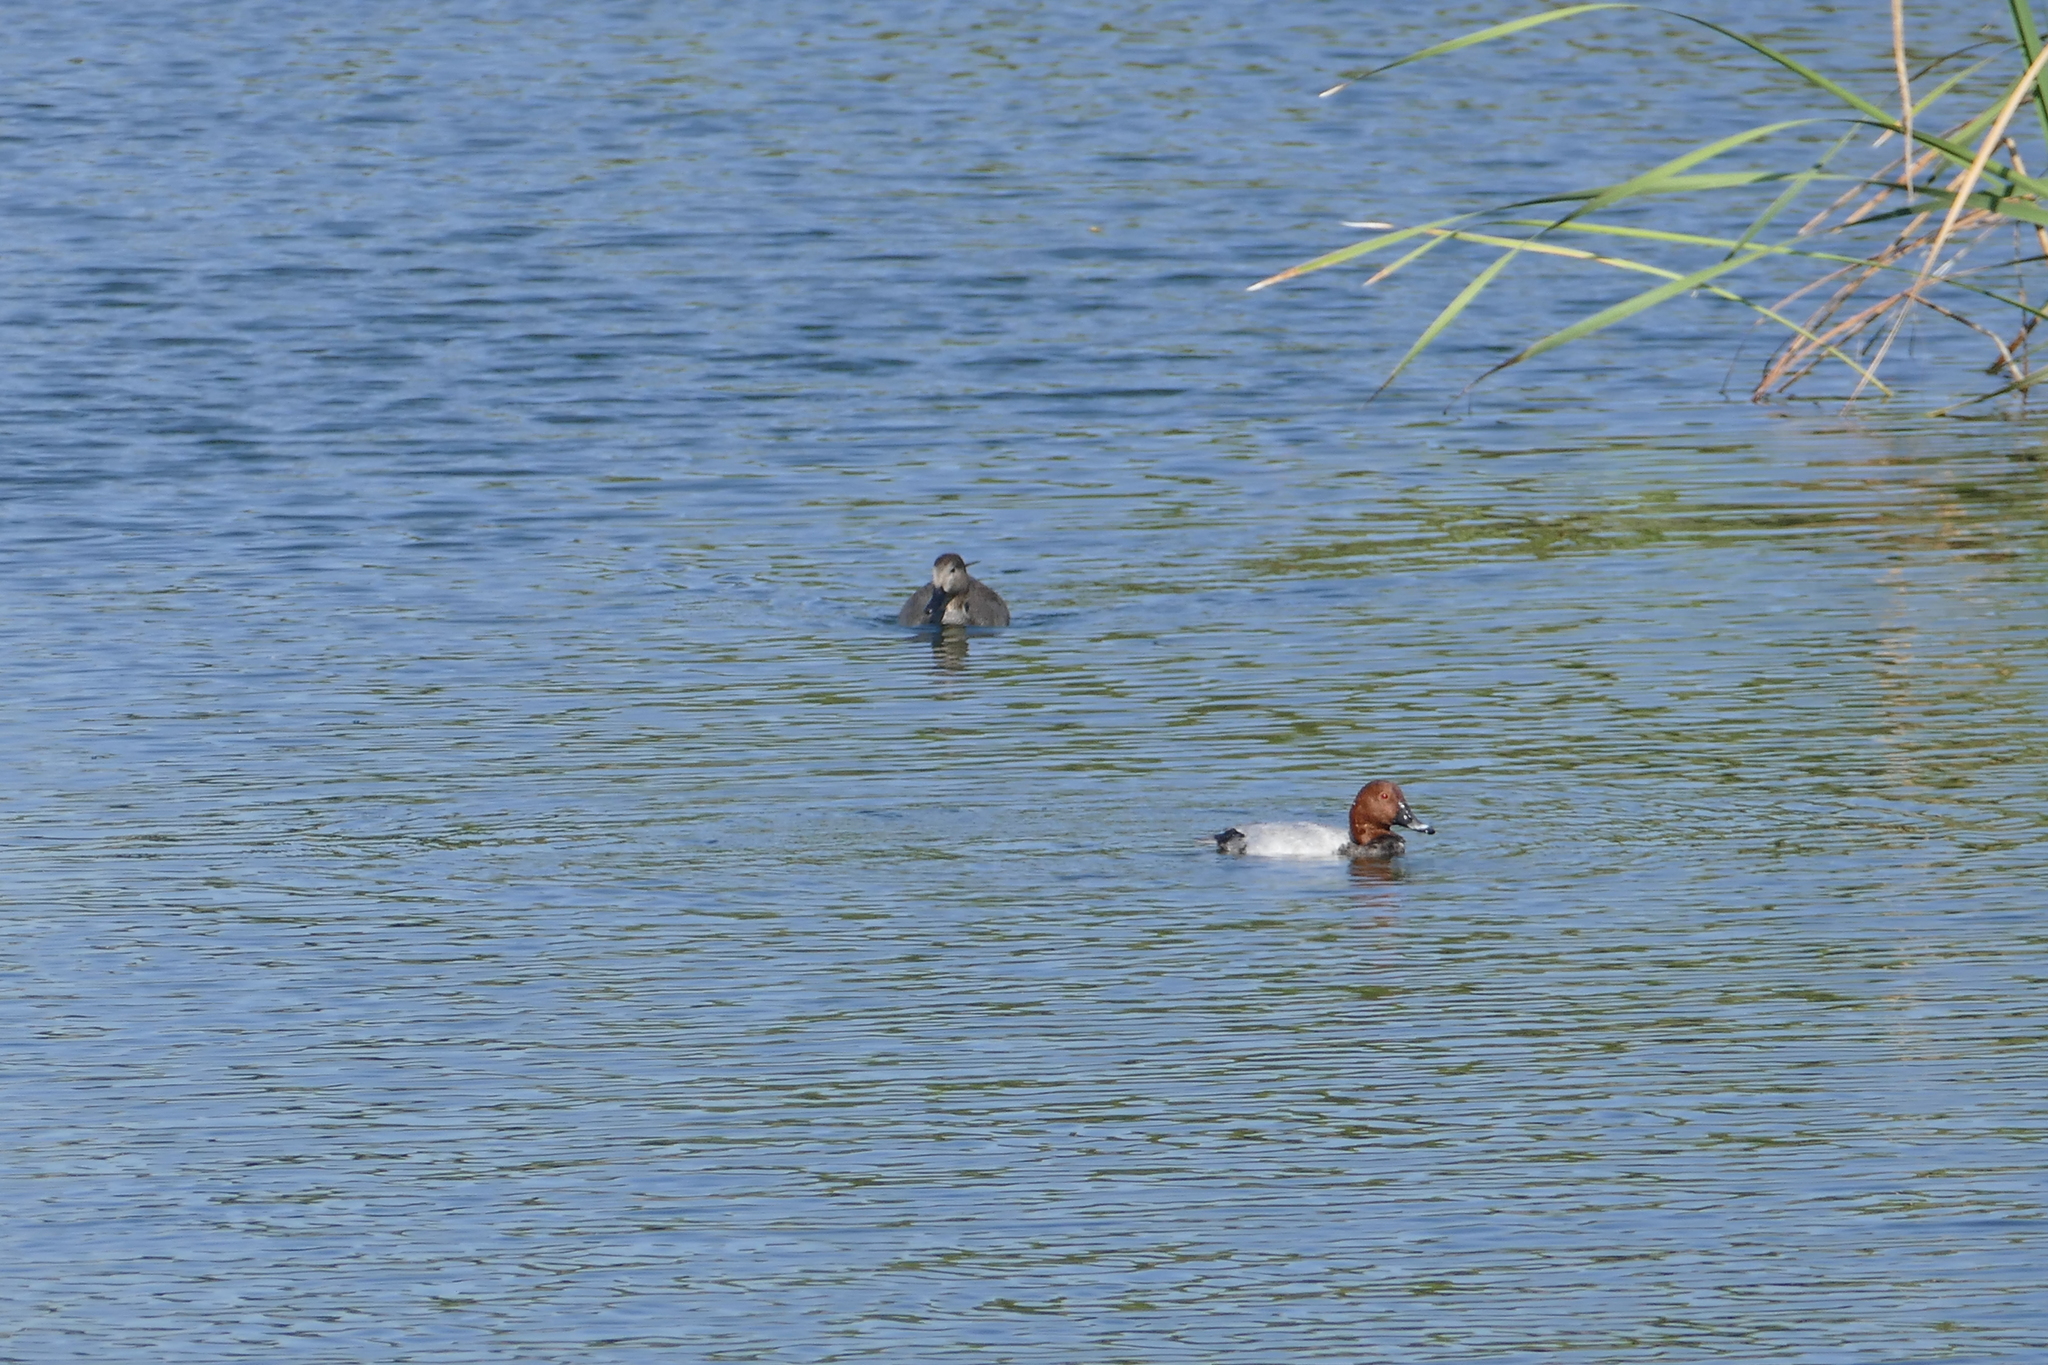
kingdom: Animalia
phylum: Chordata
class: Aves
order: Anseriformes
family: Anatidae
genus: Aythya
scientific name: Aythya ferina
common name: Common pochard
